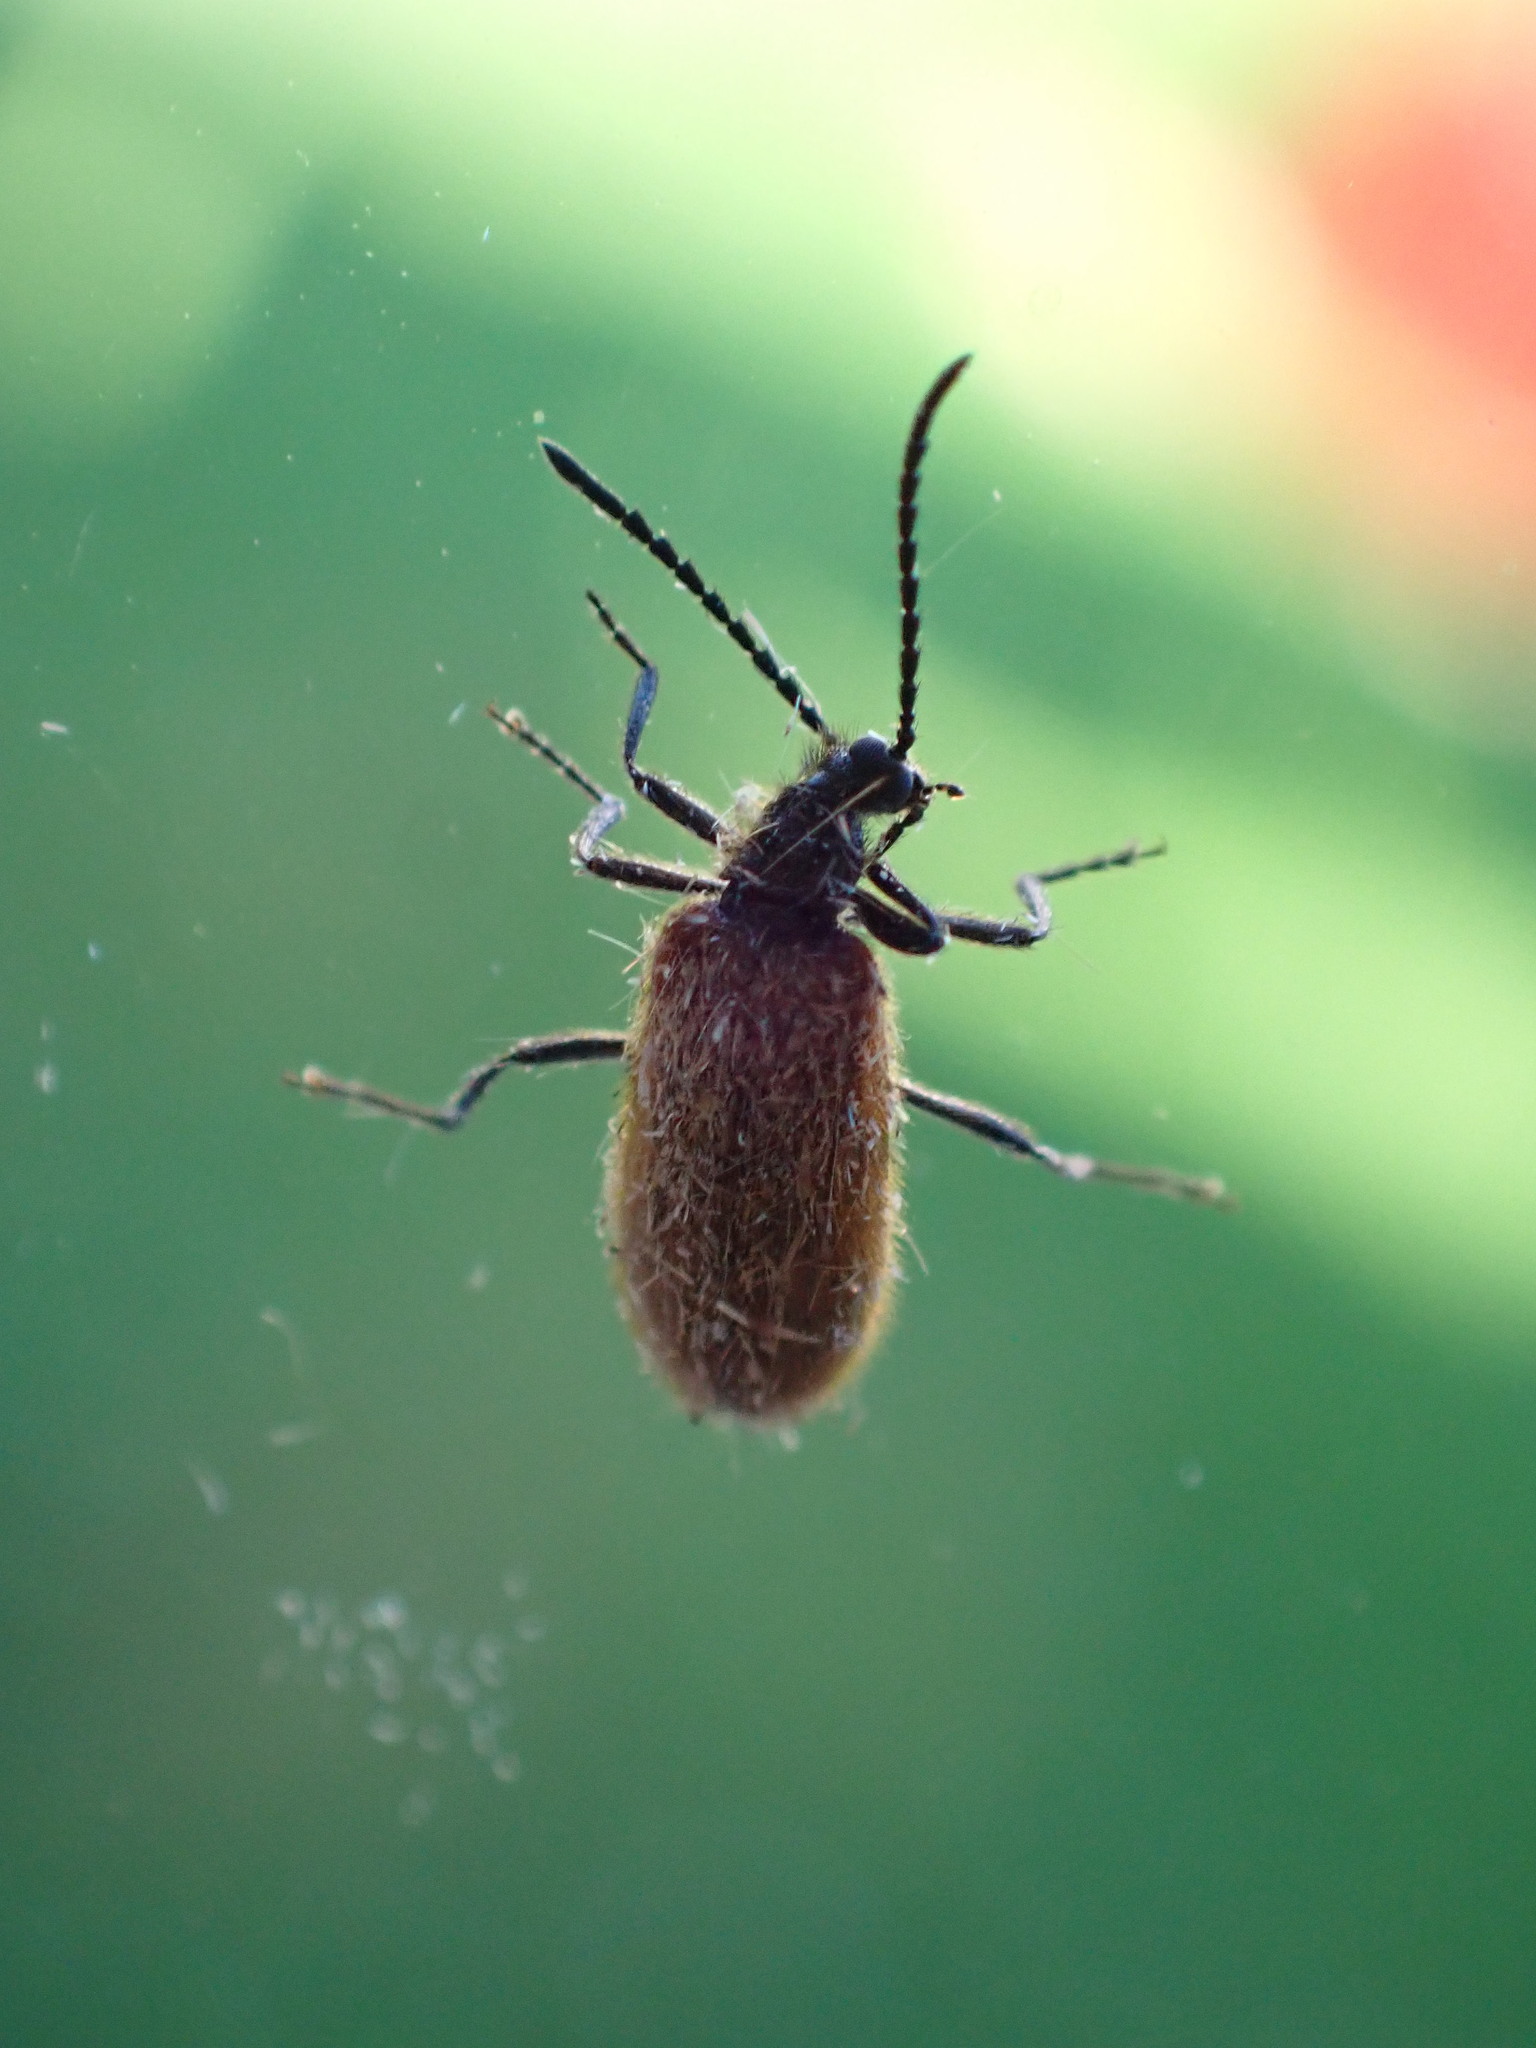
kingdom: Animalia
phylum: Arthropoda
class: Insecta
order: Coleoptera
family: Tenebrionidae
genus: Lagria
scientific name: Lagria hirta
